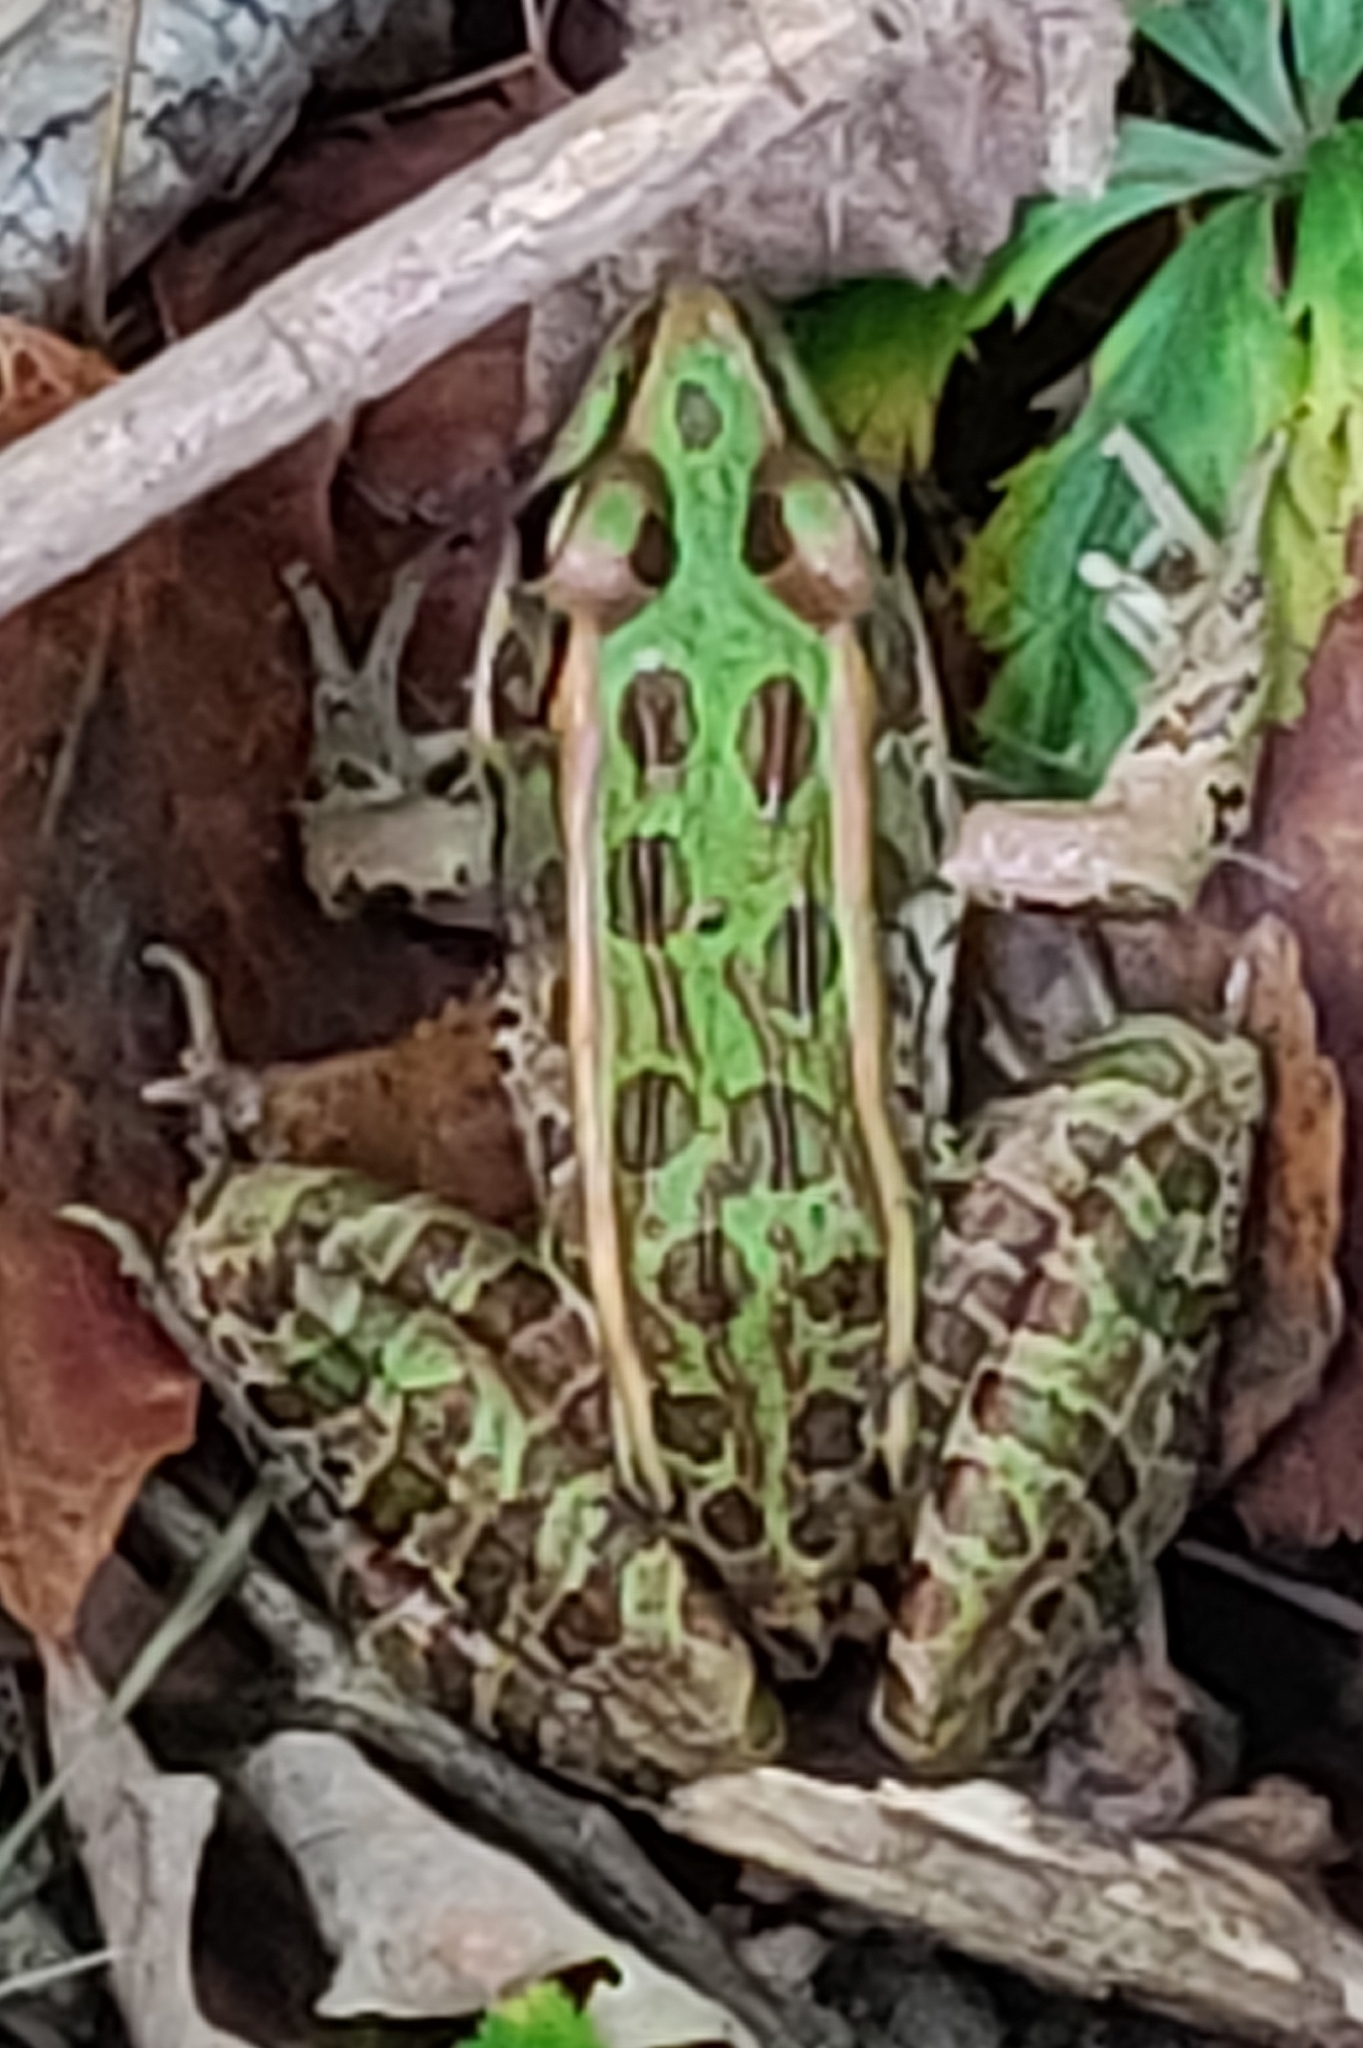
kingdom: Animalia
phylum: Chordata
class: Amphibia
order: Anura
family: Ranidae
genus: Lithobates
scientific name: Lithobates pipiens
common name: Northern leopard frog
